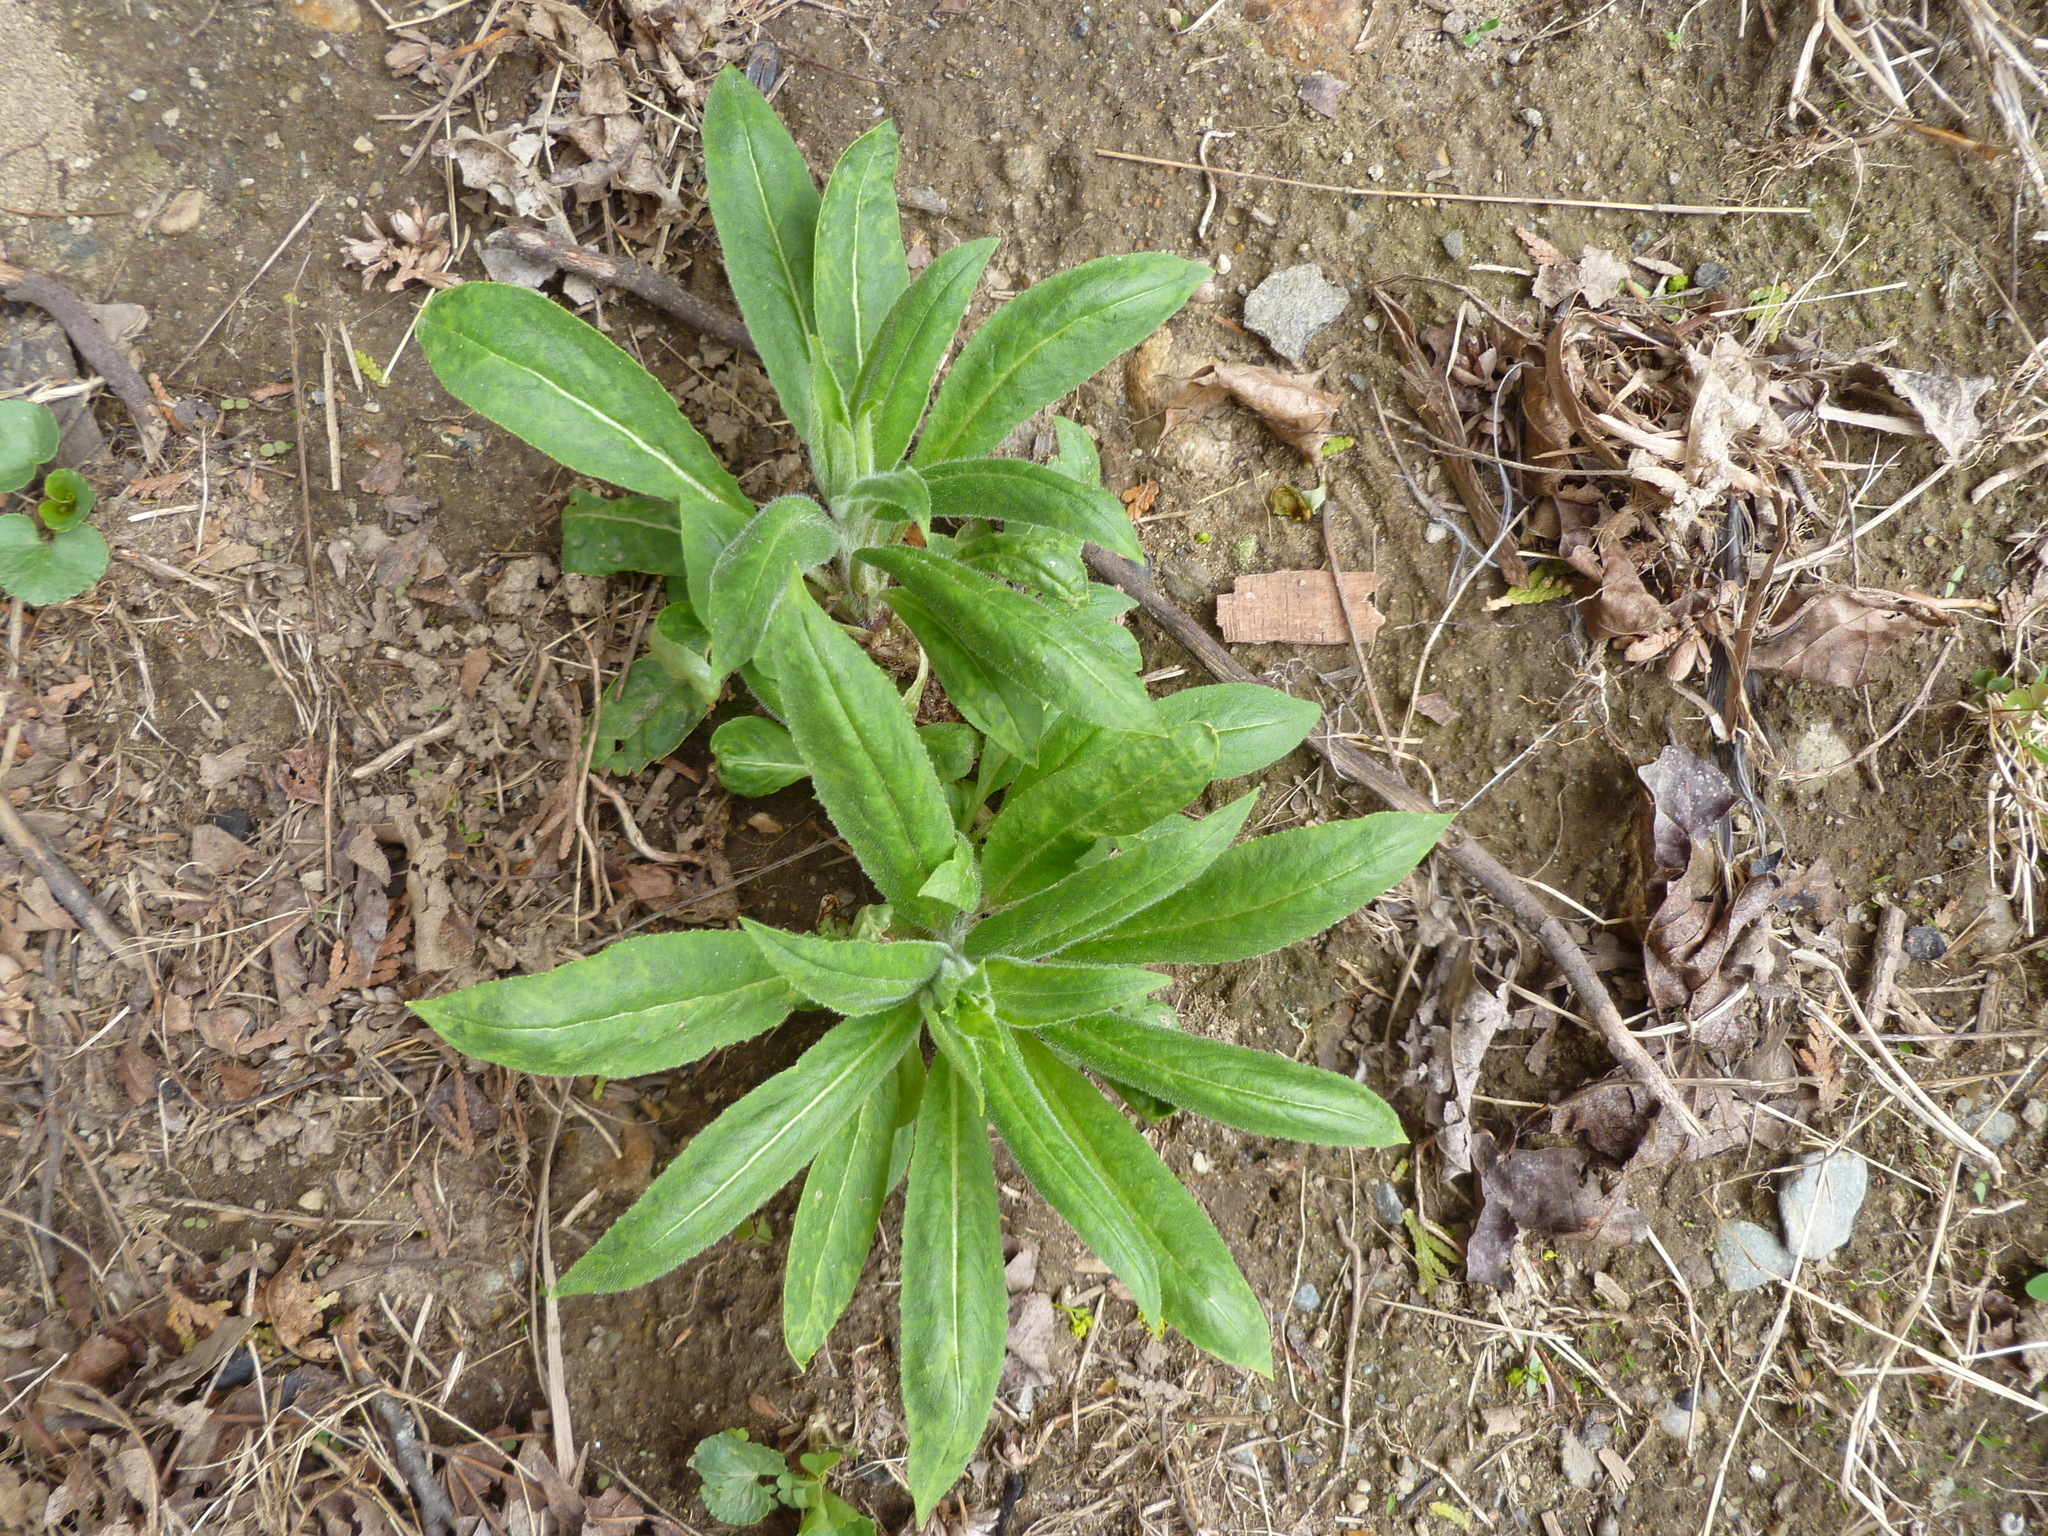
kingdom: Plantae
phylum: Tracheophyta
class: Magnoliopsida
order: Brassicales
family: Brassicaceae
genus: Hesperis
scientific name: Hesperis matronalis
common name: Dame's-violet
